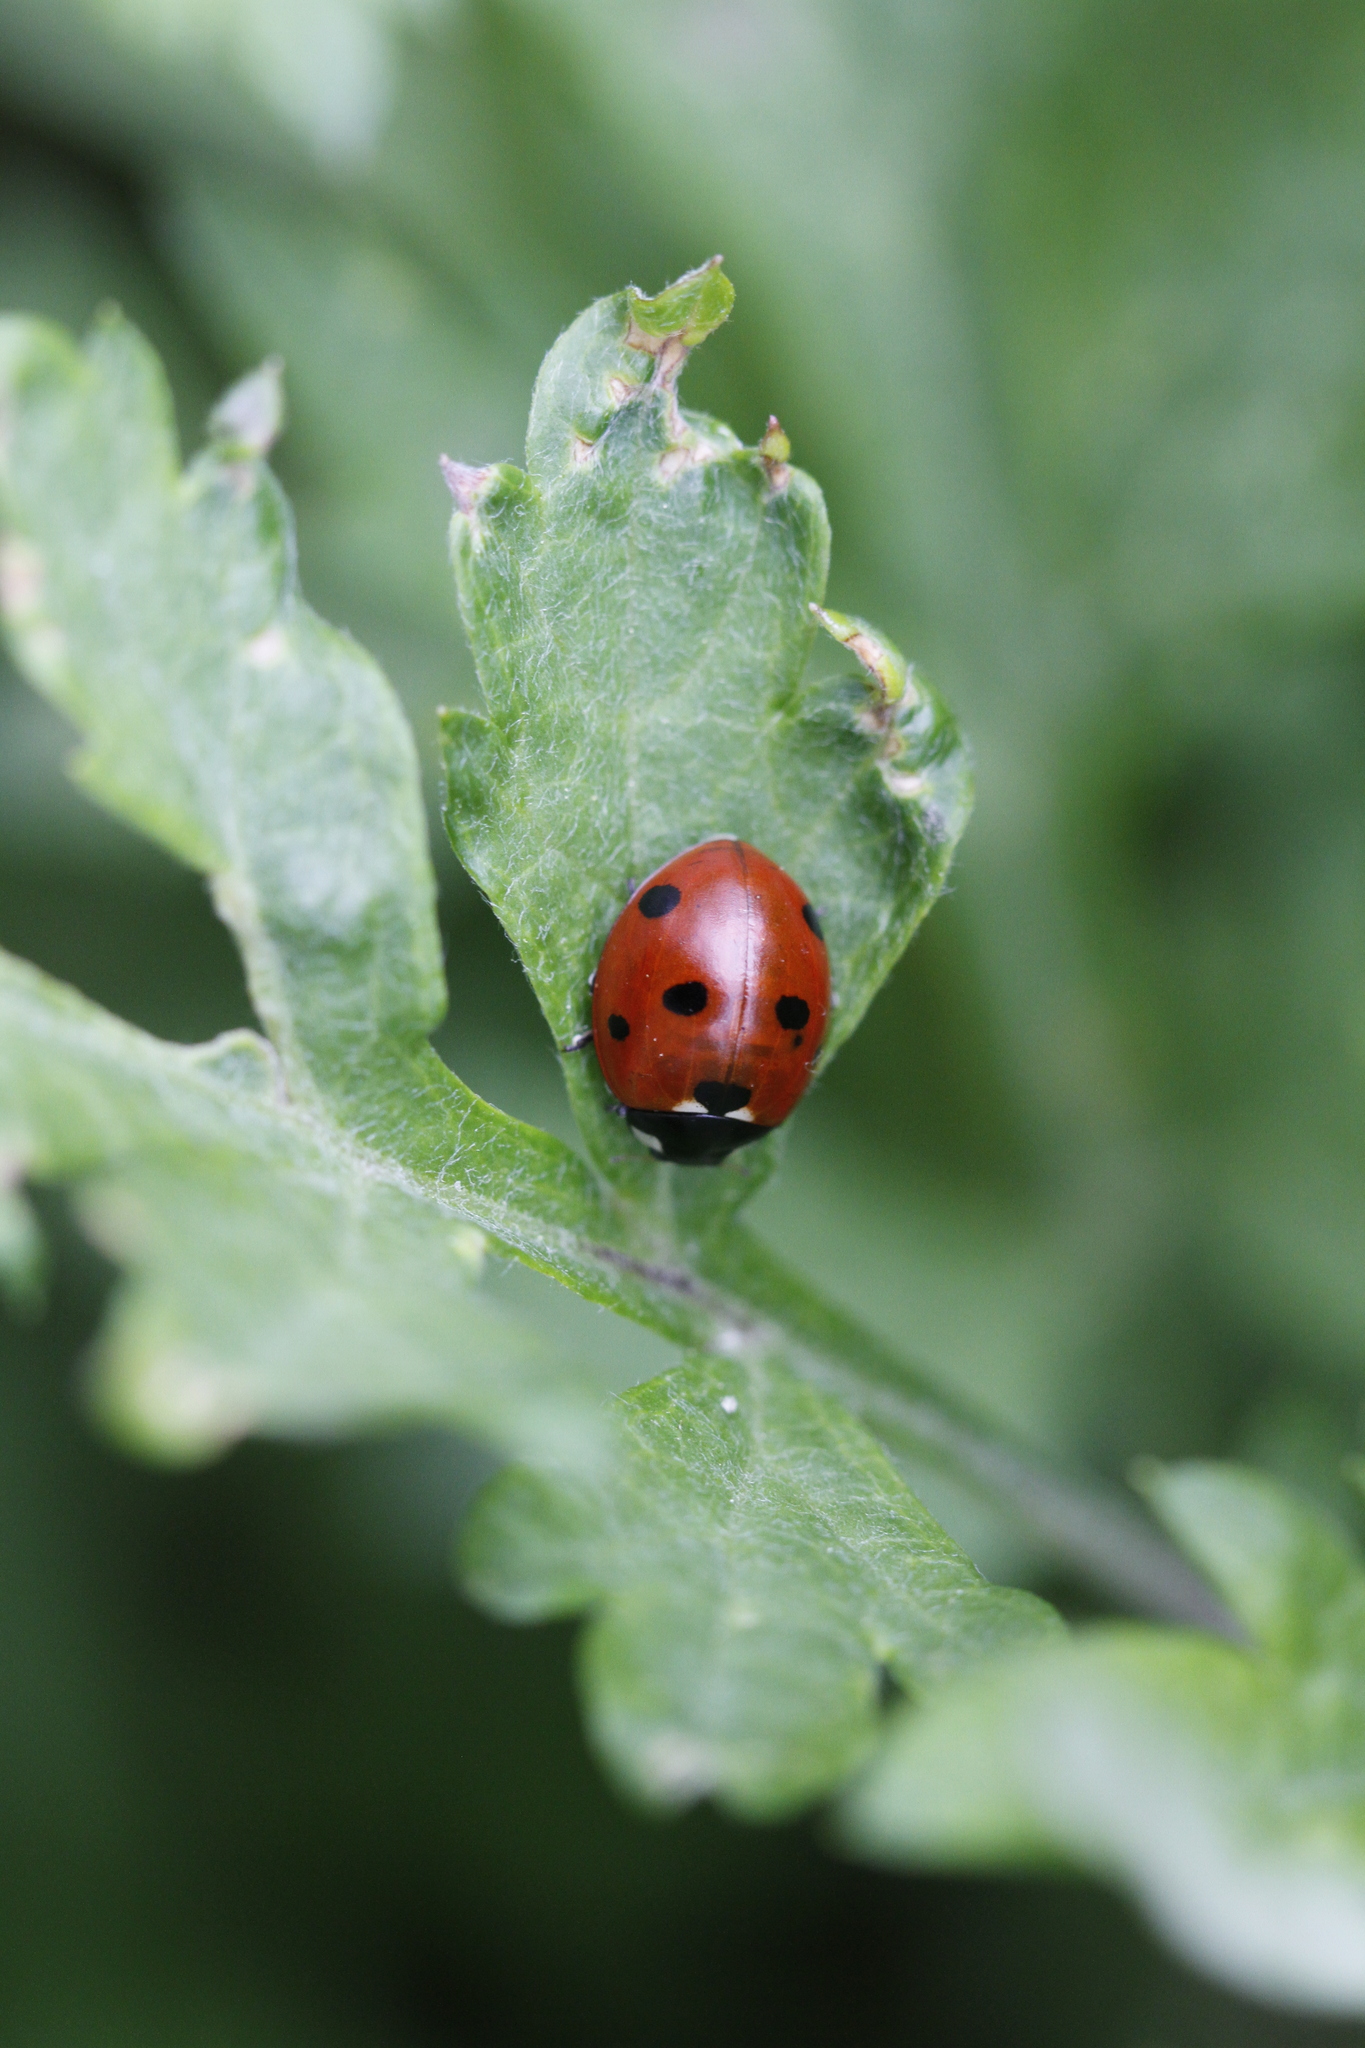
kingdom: Animalia
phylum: Arthropoda
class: Insecta
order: Coleoptera
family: Coccinellidae
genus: Coccinella
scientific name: Coccinella septempunctata
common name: Sevenspotted lady beetle
